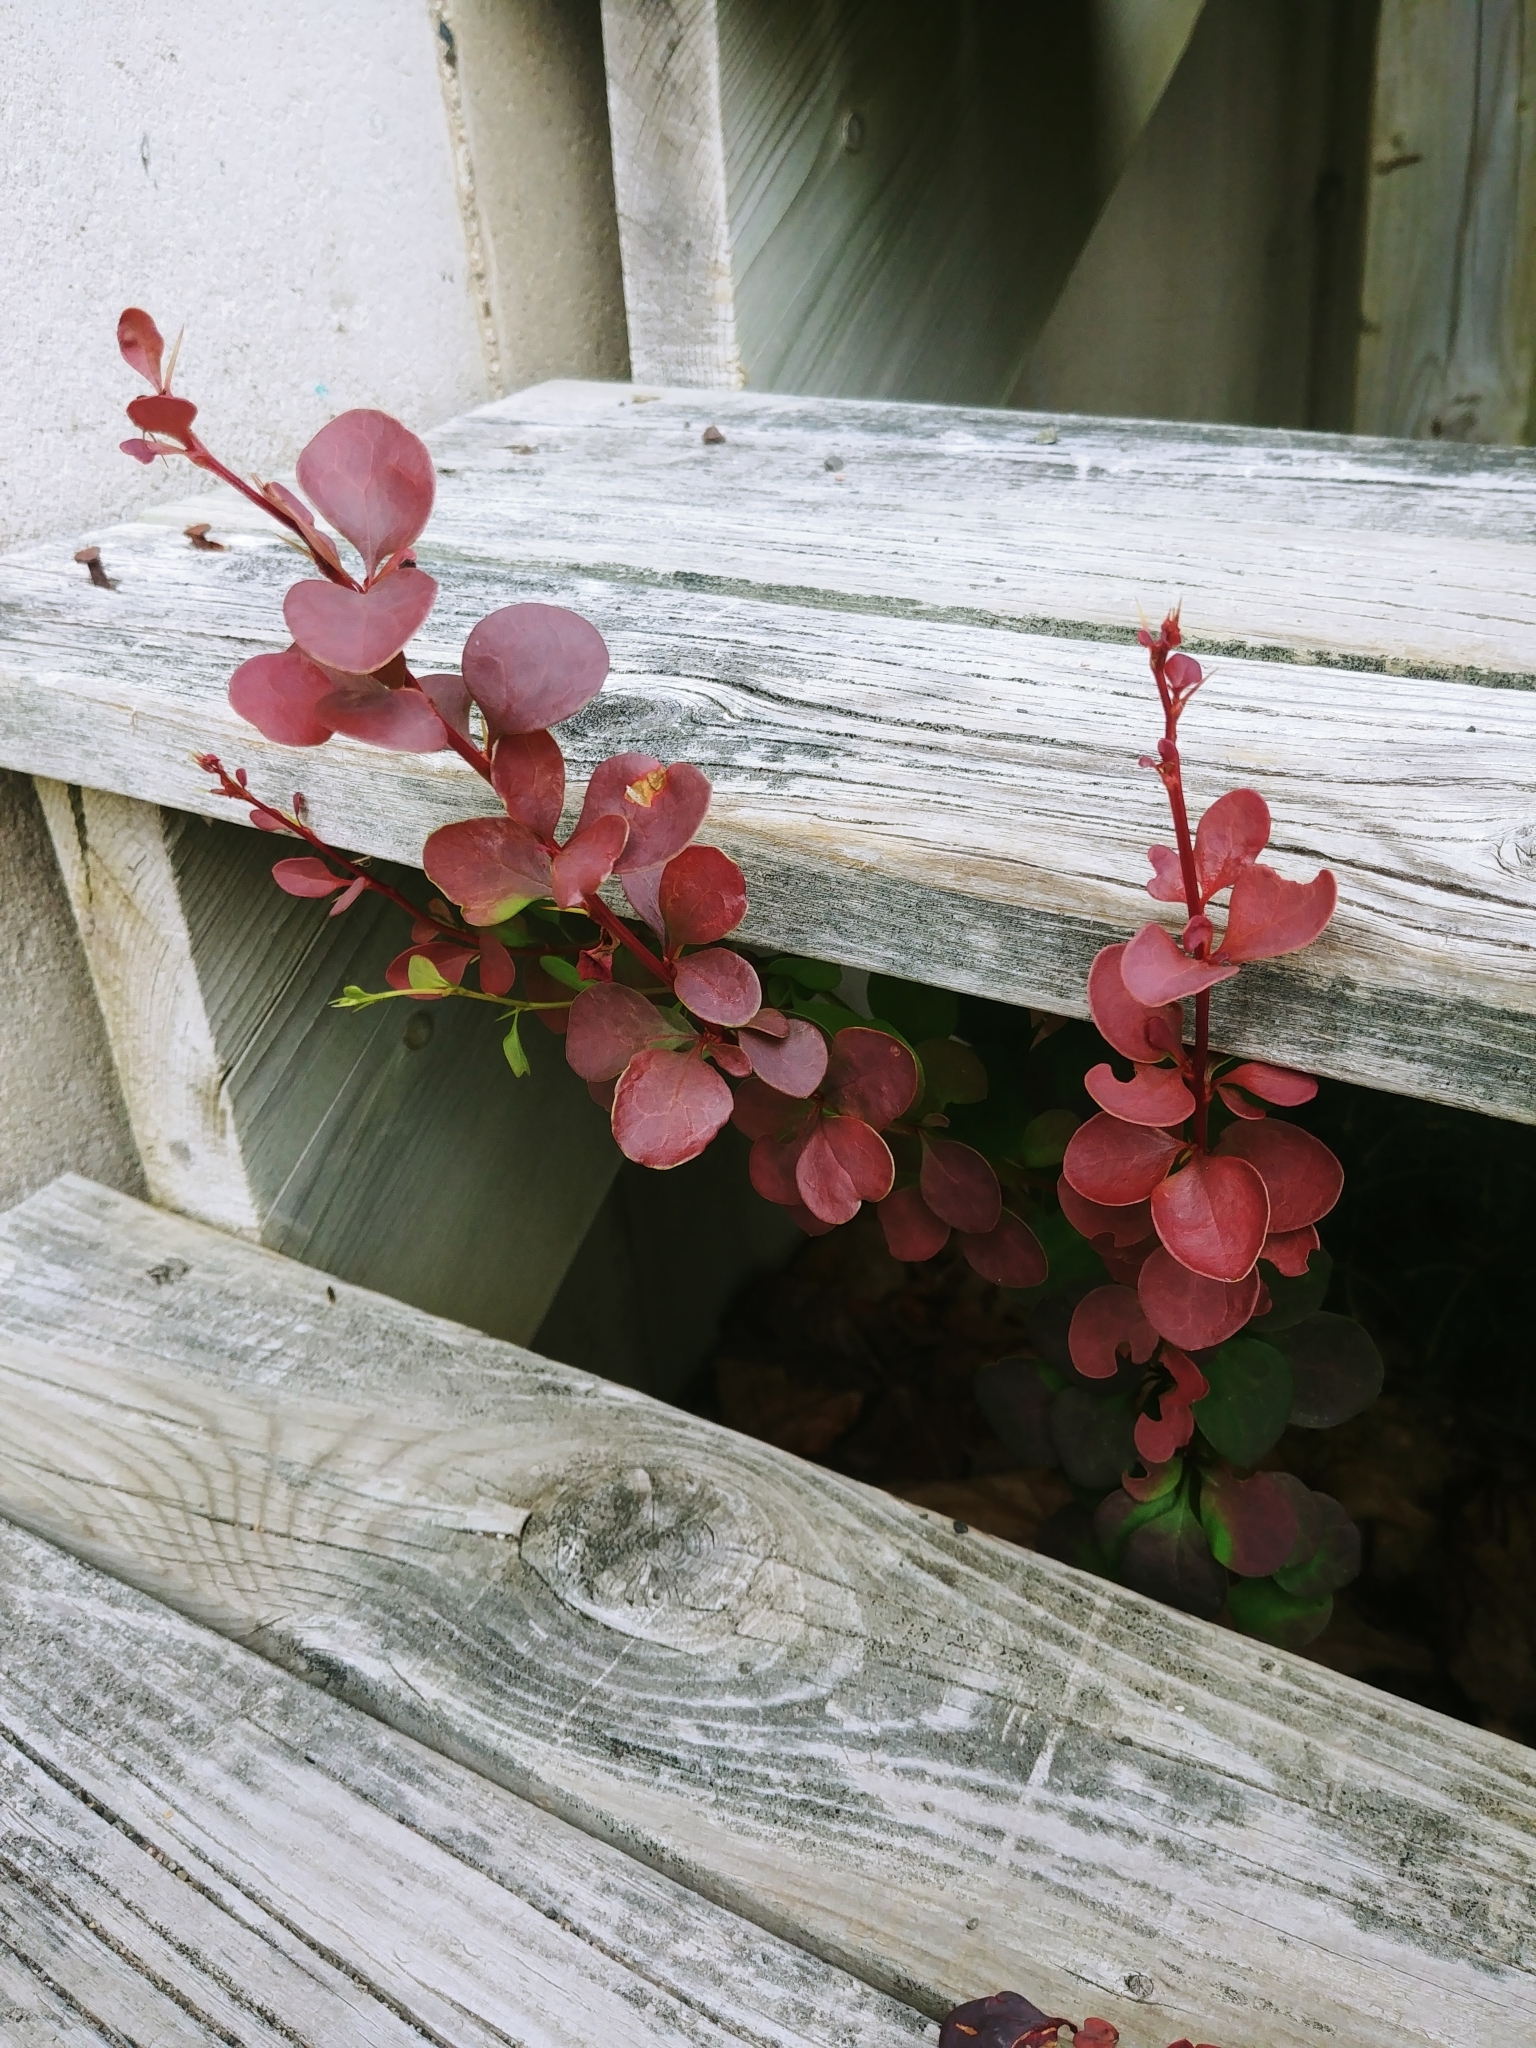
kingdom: Plantae
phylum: Tracheophyta
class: Magnoliopsida
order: Ranunculales
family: Berberidaceae
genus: Berberis
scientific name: Berberis thunbergii
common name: Japanese barberry
